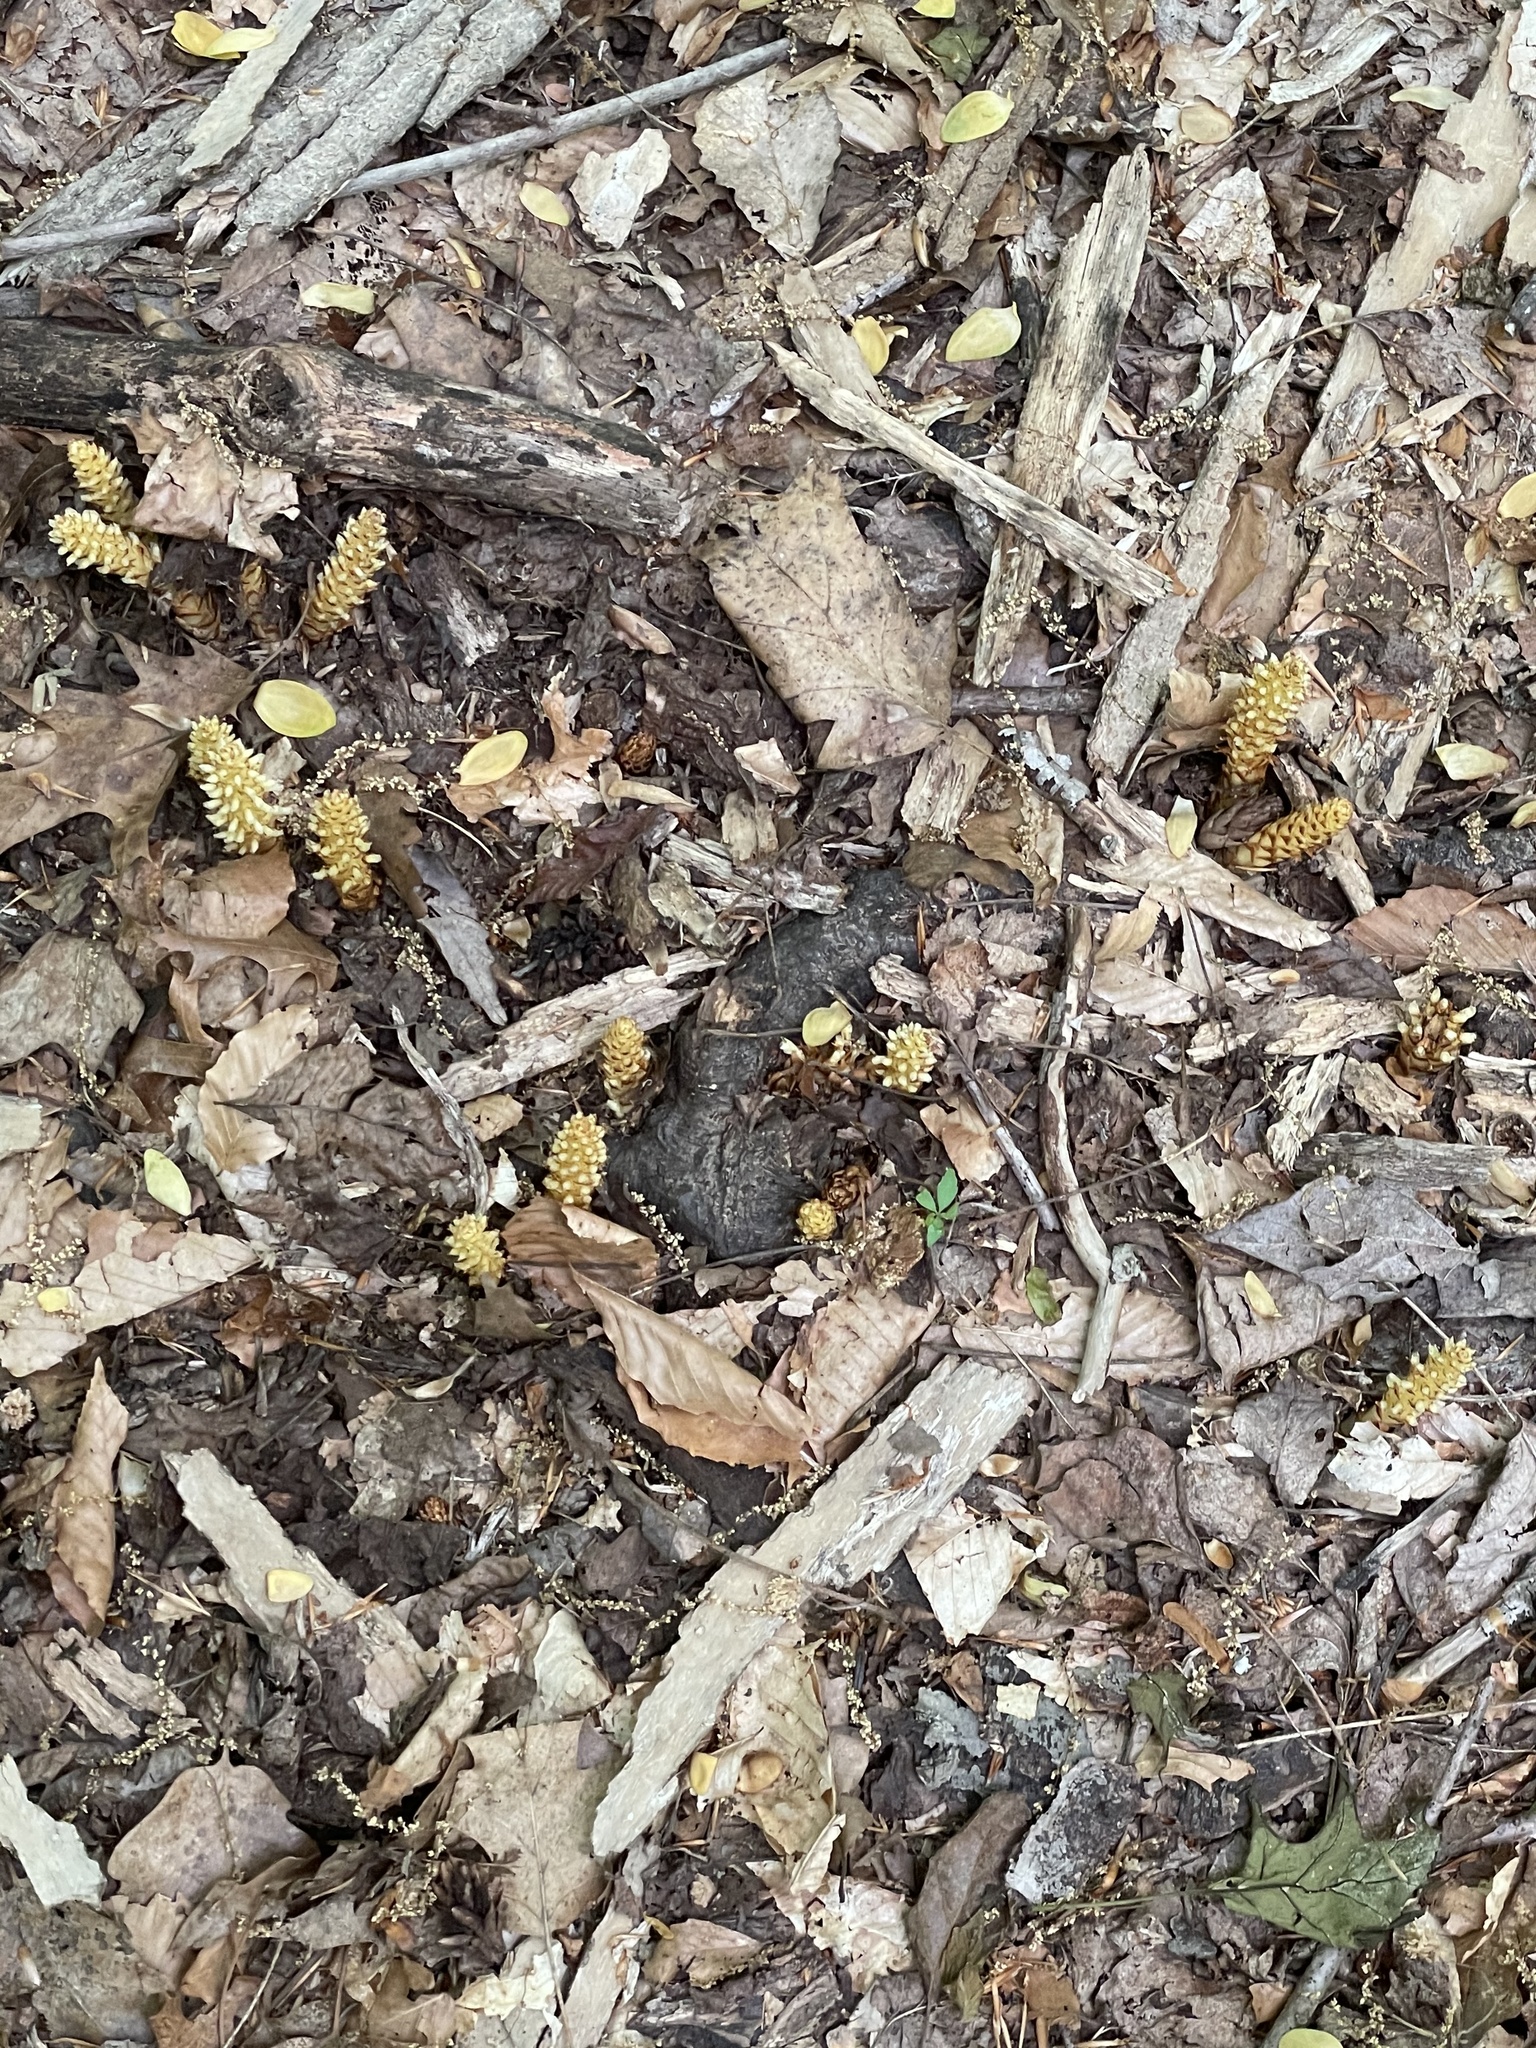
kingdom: Plantae
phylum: Tracheophyta
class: Magnoliopsida
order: Lamiales
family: Orobanchaceae
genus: Conopholis
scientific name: Conopholis americana
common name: American cancer-root
